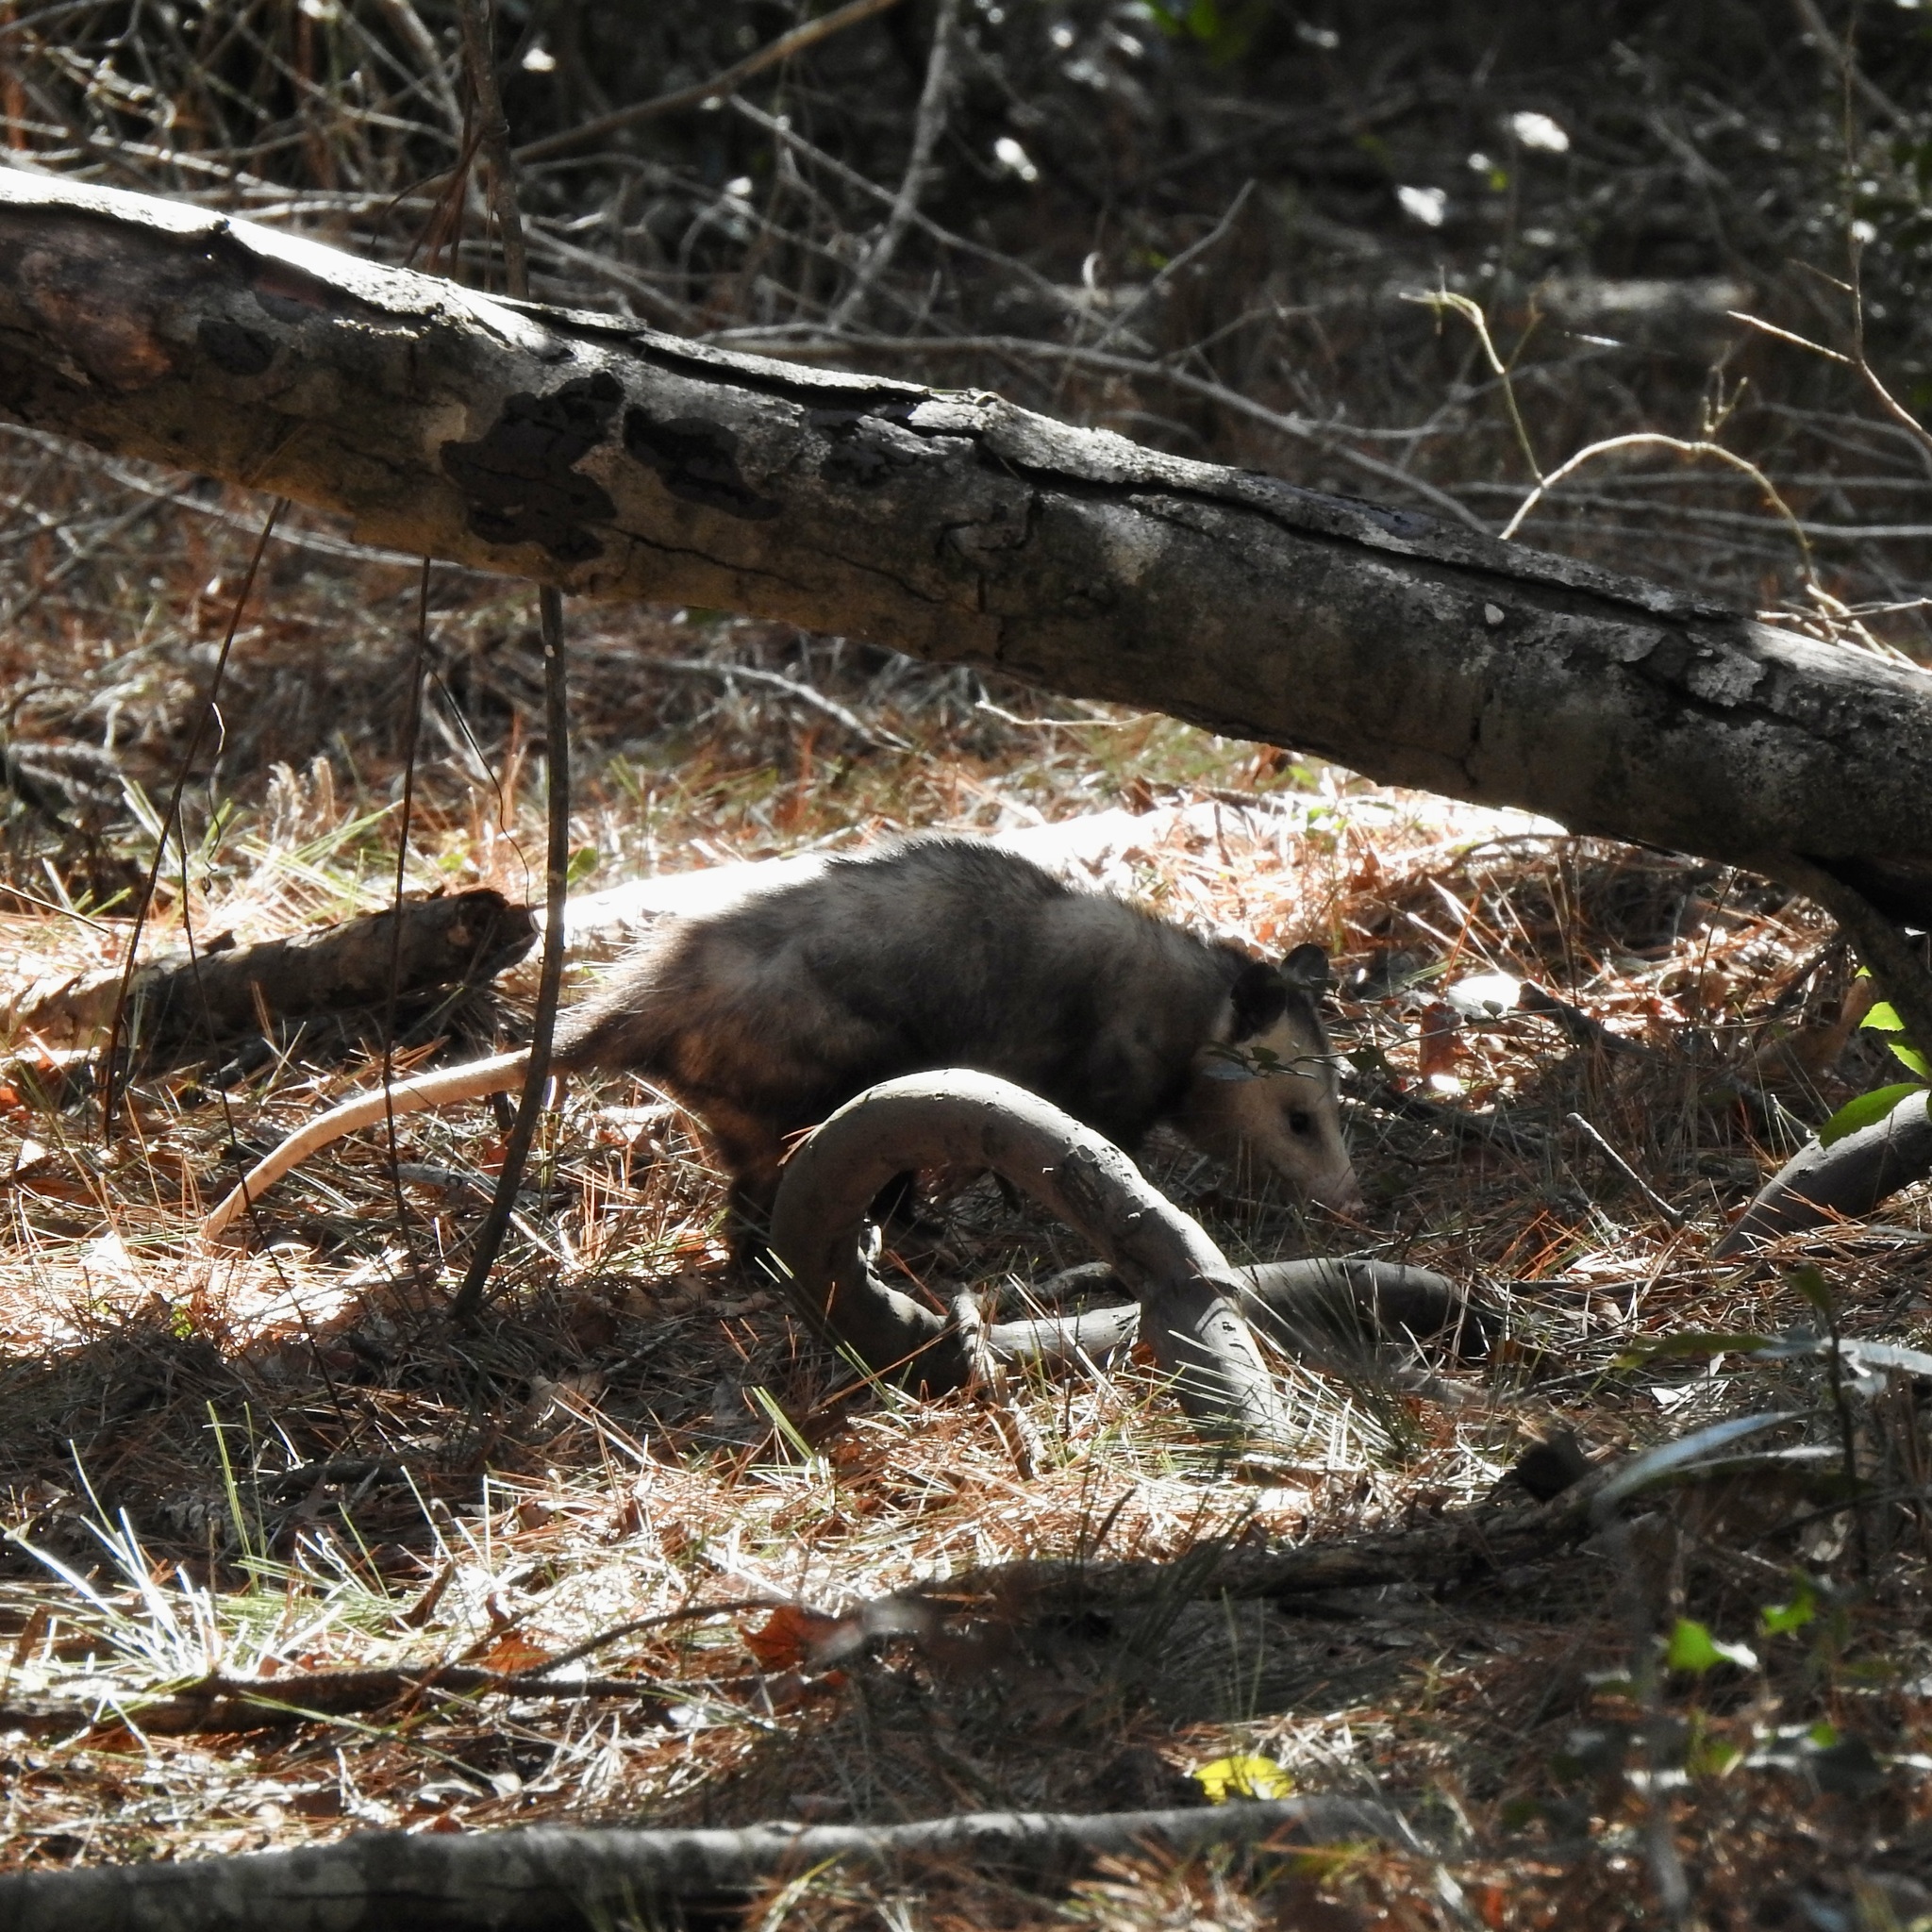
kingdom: Animalia
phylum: Chordata
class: Mammalia
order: Didelphimorphia
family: Didelphidae
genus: Didelphis
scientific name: Didelphis virginiana
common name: Virginia opossum
